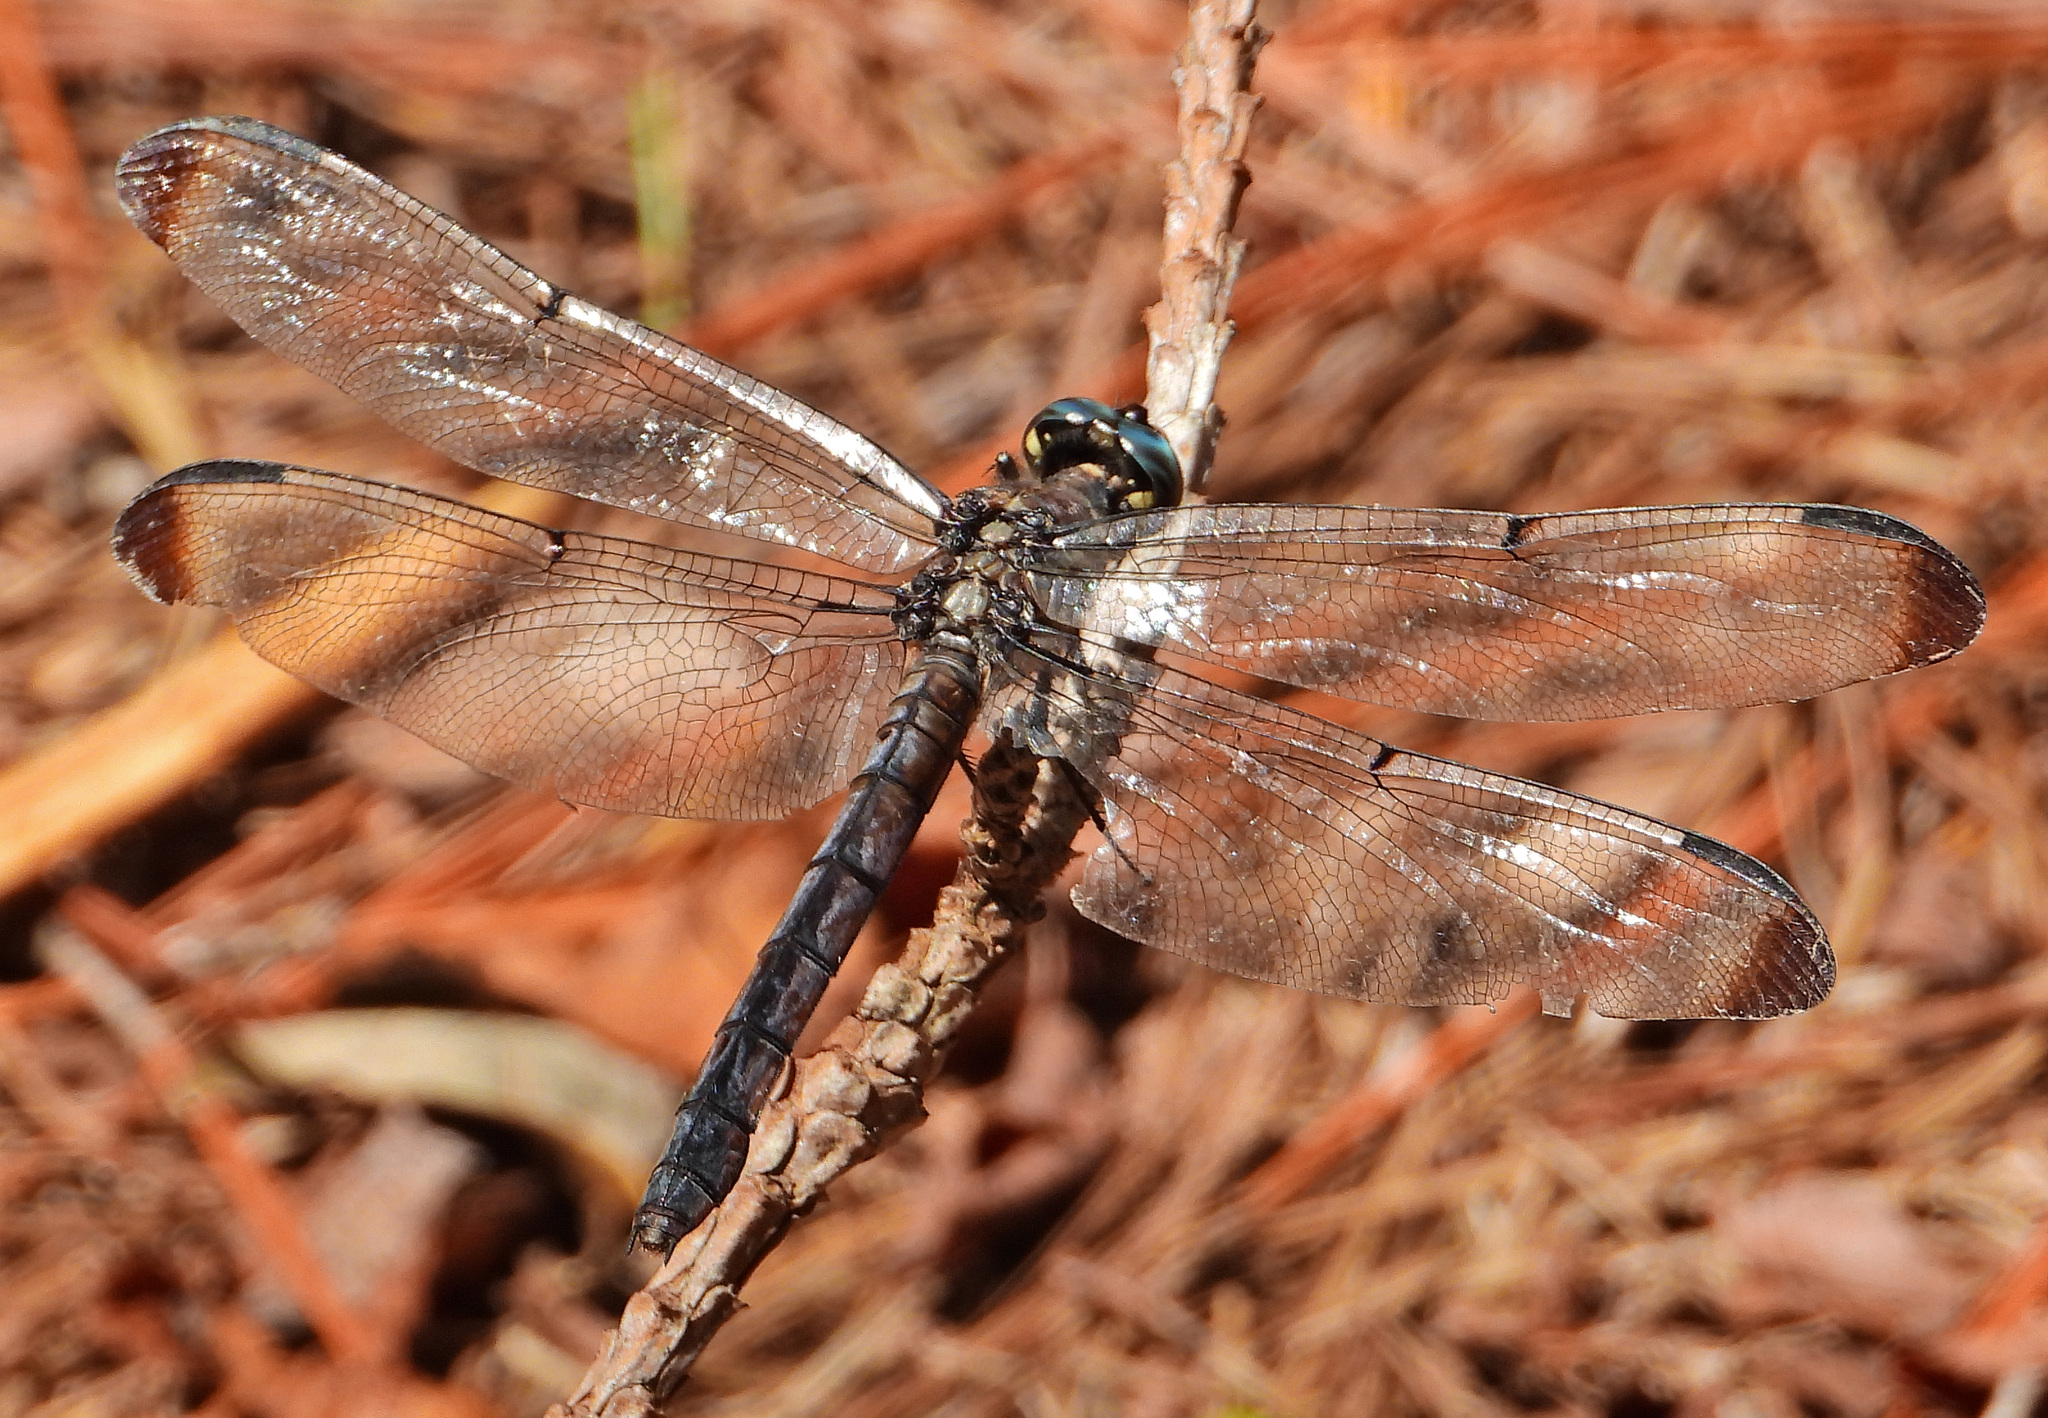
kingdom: Animalia
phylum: Arthropoda
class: Insecta
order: Odonata
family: Libellulidae
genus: Libellula
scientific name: Libellula vibrans
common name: Great blue skimmer
